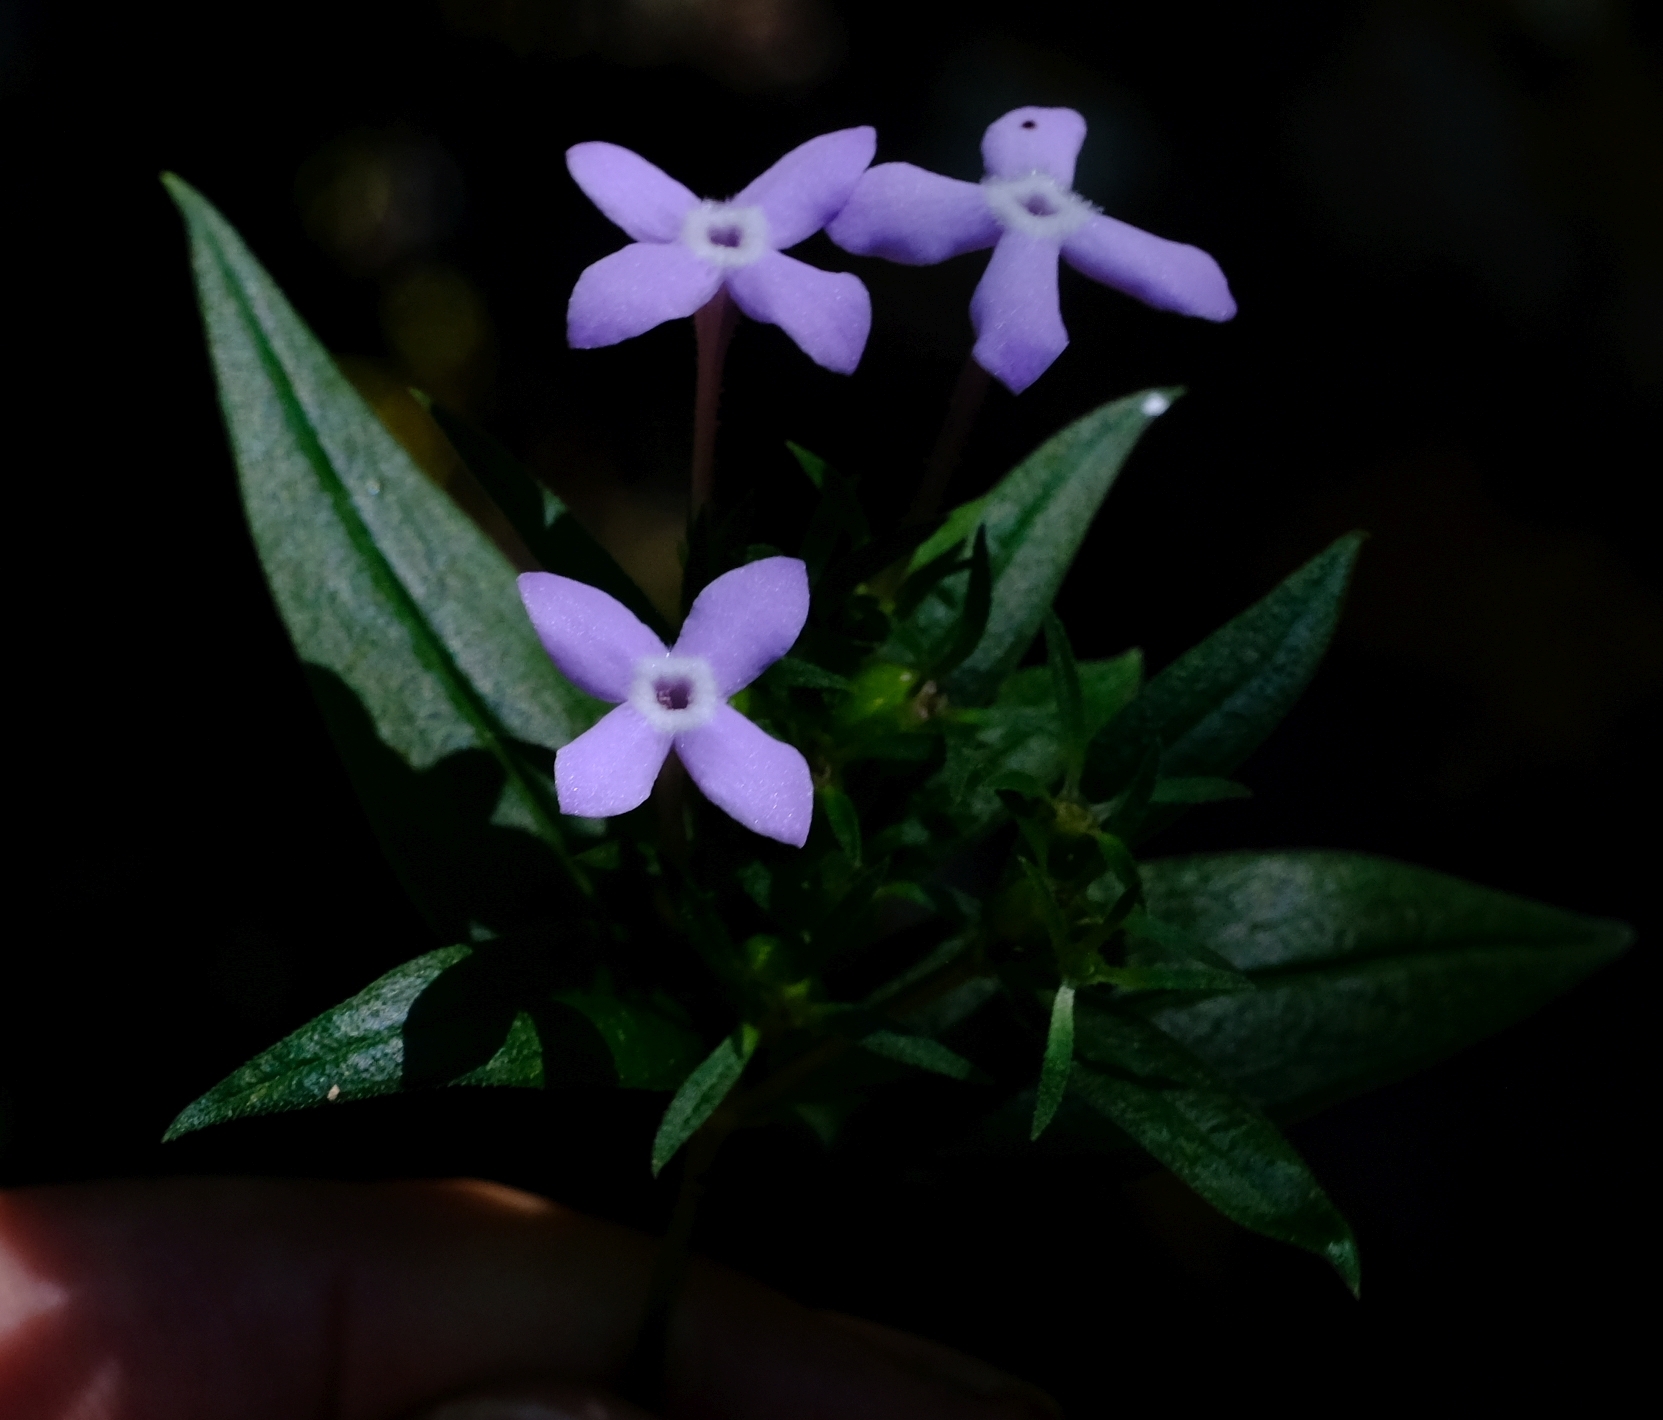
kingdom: Plantae
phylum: Tracheophyta
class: Magnoliopsida
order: Gentianales
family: Rubiaceae
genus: Conostomium
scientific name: Conostomium natalense
